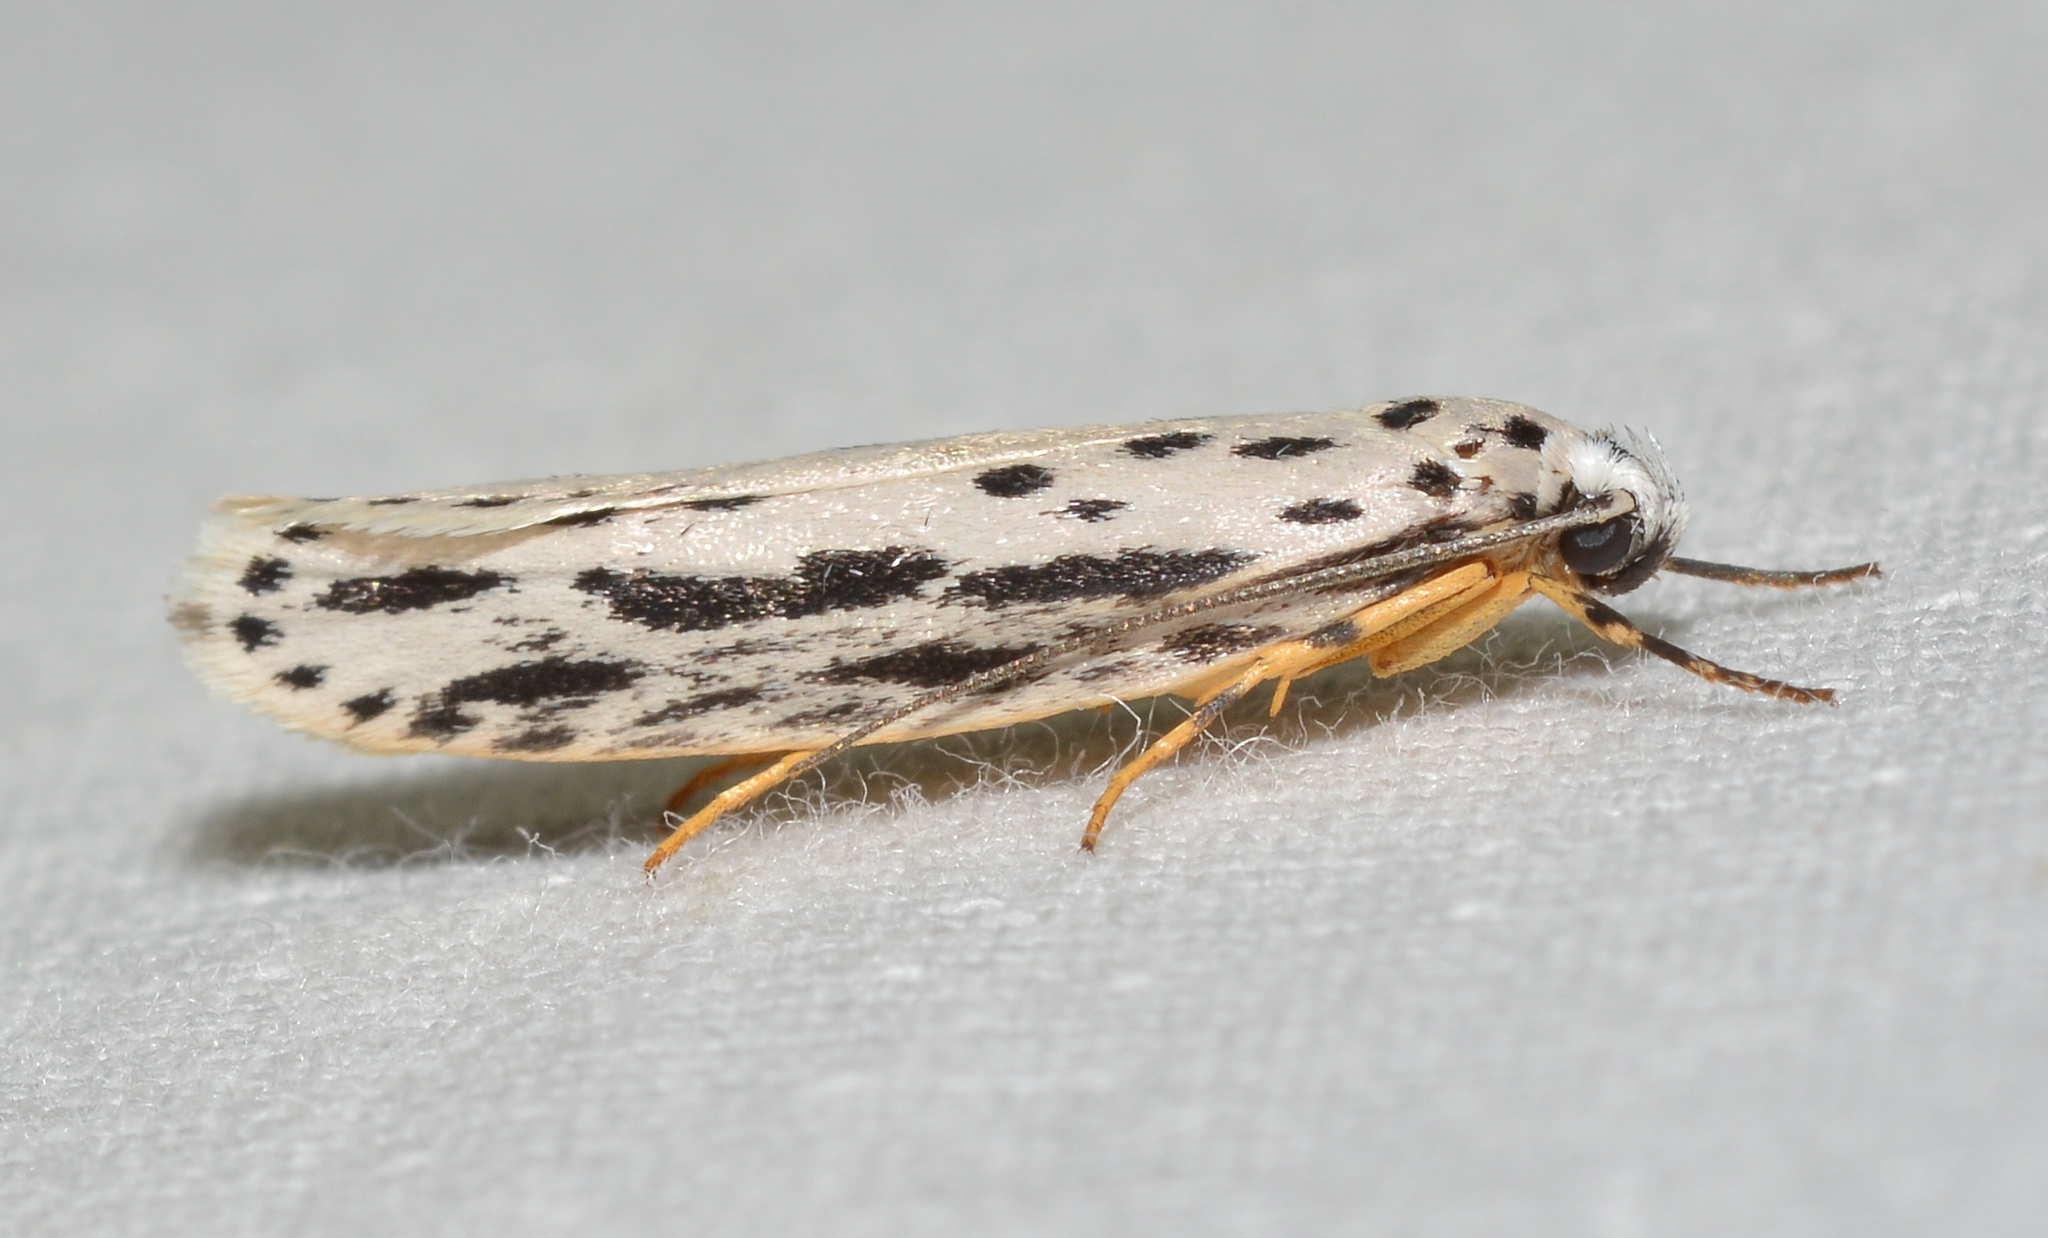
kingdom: Animalia
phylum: Arthropoda
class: Insecta
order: Lepidoptera
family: Ethmiidae
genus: Ethmia
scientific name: Ethmia zelleriella
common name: Zeller's ethmia
